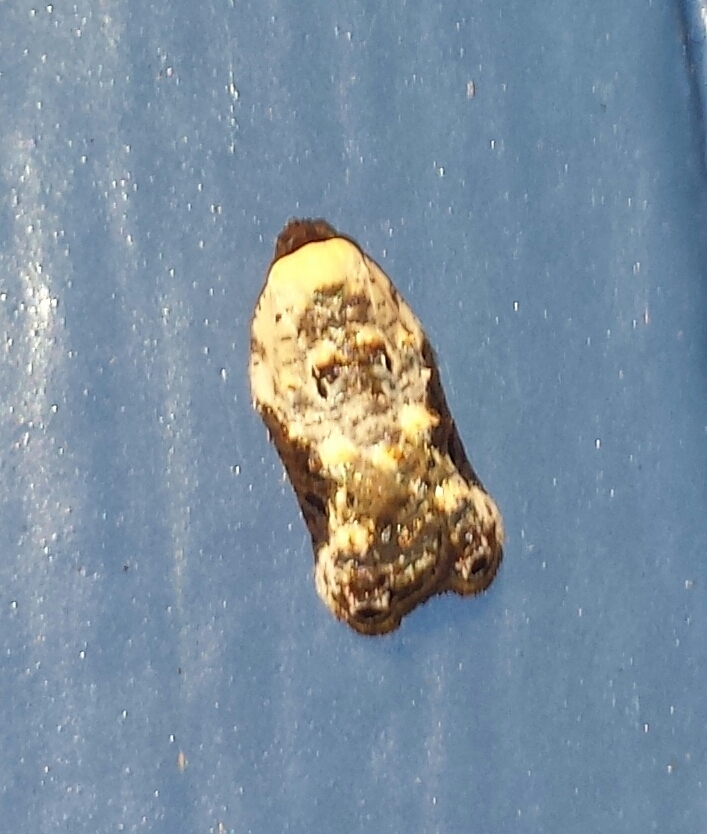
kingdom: Animalia
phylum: Arthropoda
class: Insecta
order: Lepidoptera
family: Tortricidae
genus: Acleris
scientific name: Acleris nivisellana
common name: Snowy-shouldered acleris moth
